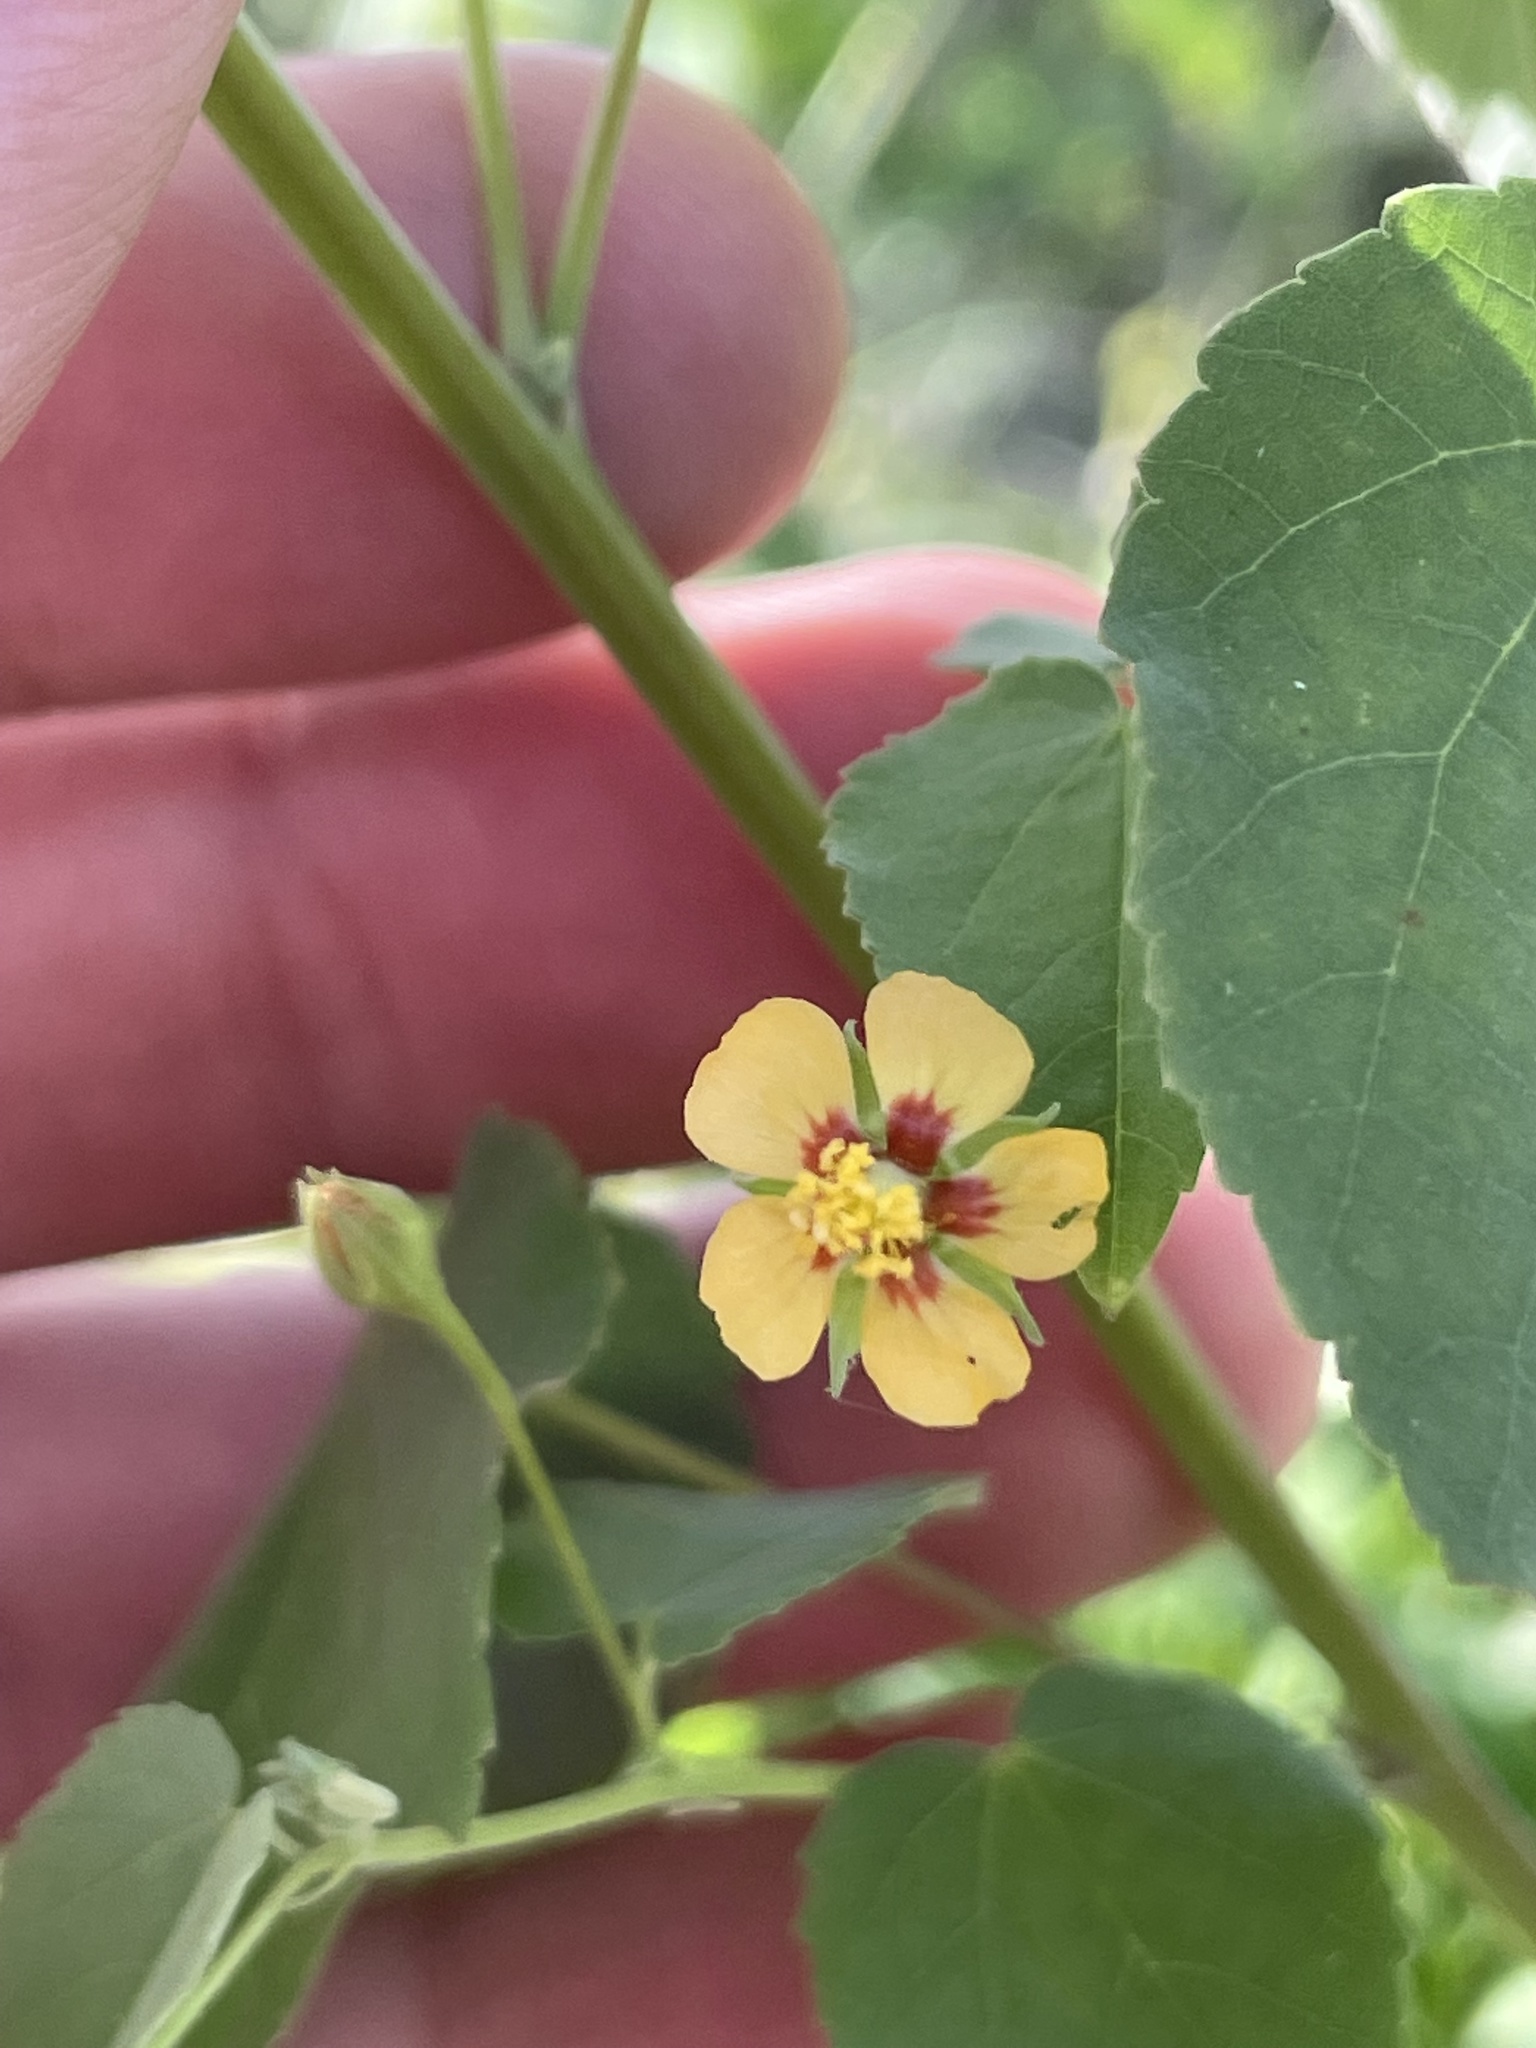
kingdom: Plantae
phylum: Tracheophyta
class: Magnoliopsida
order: Malvales
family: Malvaceae
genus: Abutilon
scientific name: Abutilon trisulcatum
